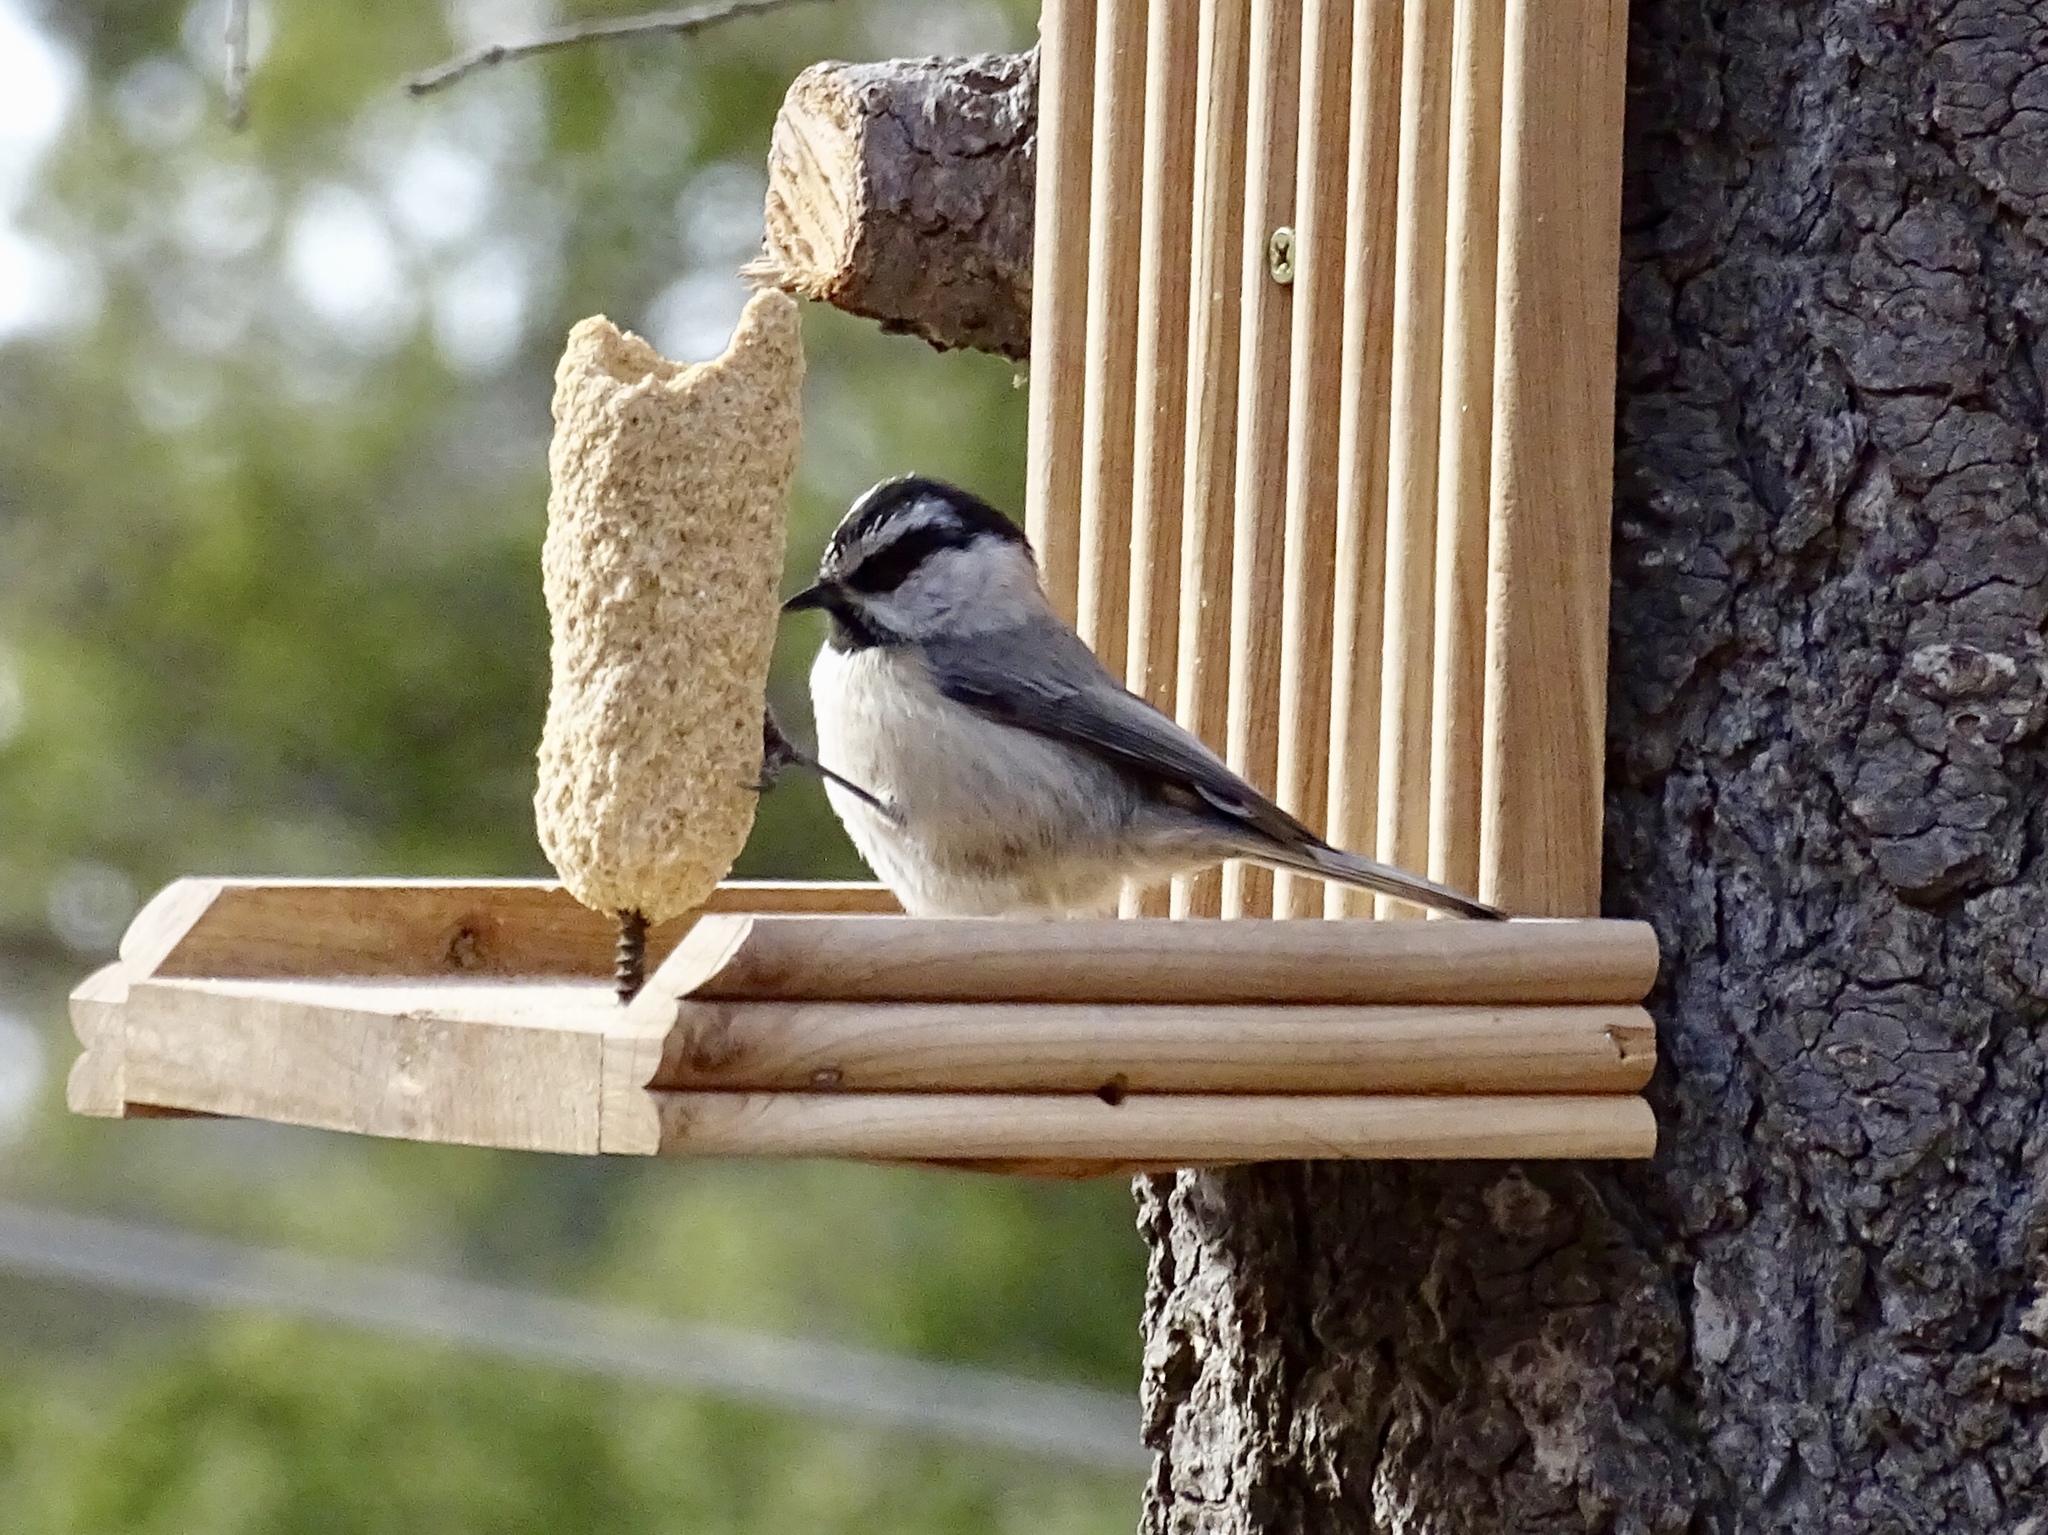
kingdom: Animalia
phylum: Chordata
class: Aves
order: Passeriformes
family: Paridae
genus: Poecile
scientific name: Poecile gambeli
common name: Mountain chickadee
